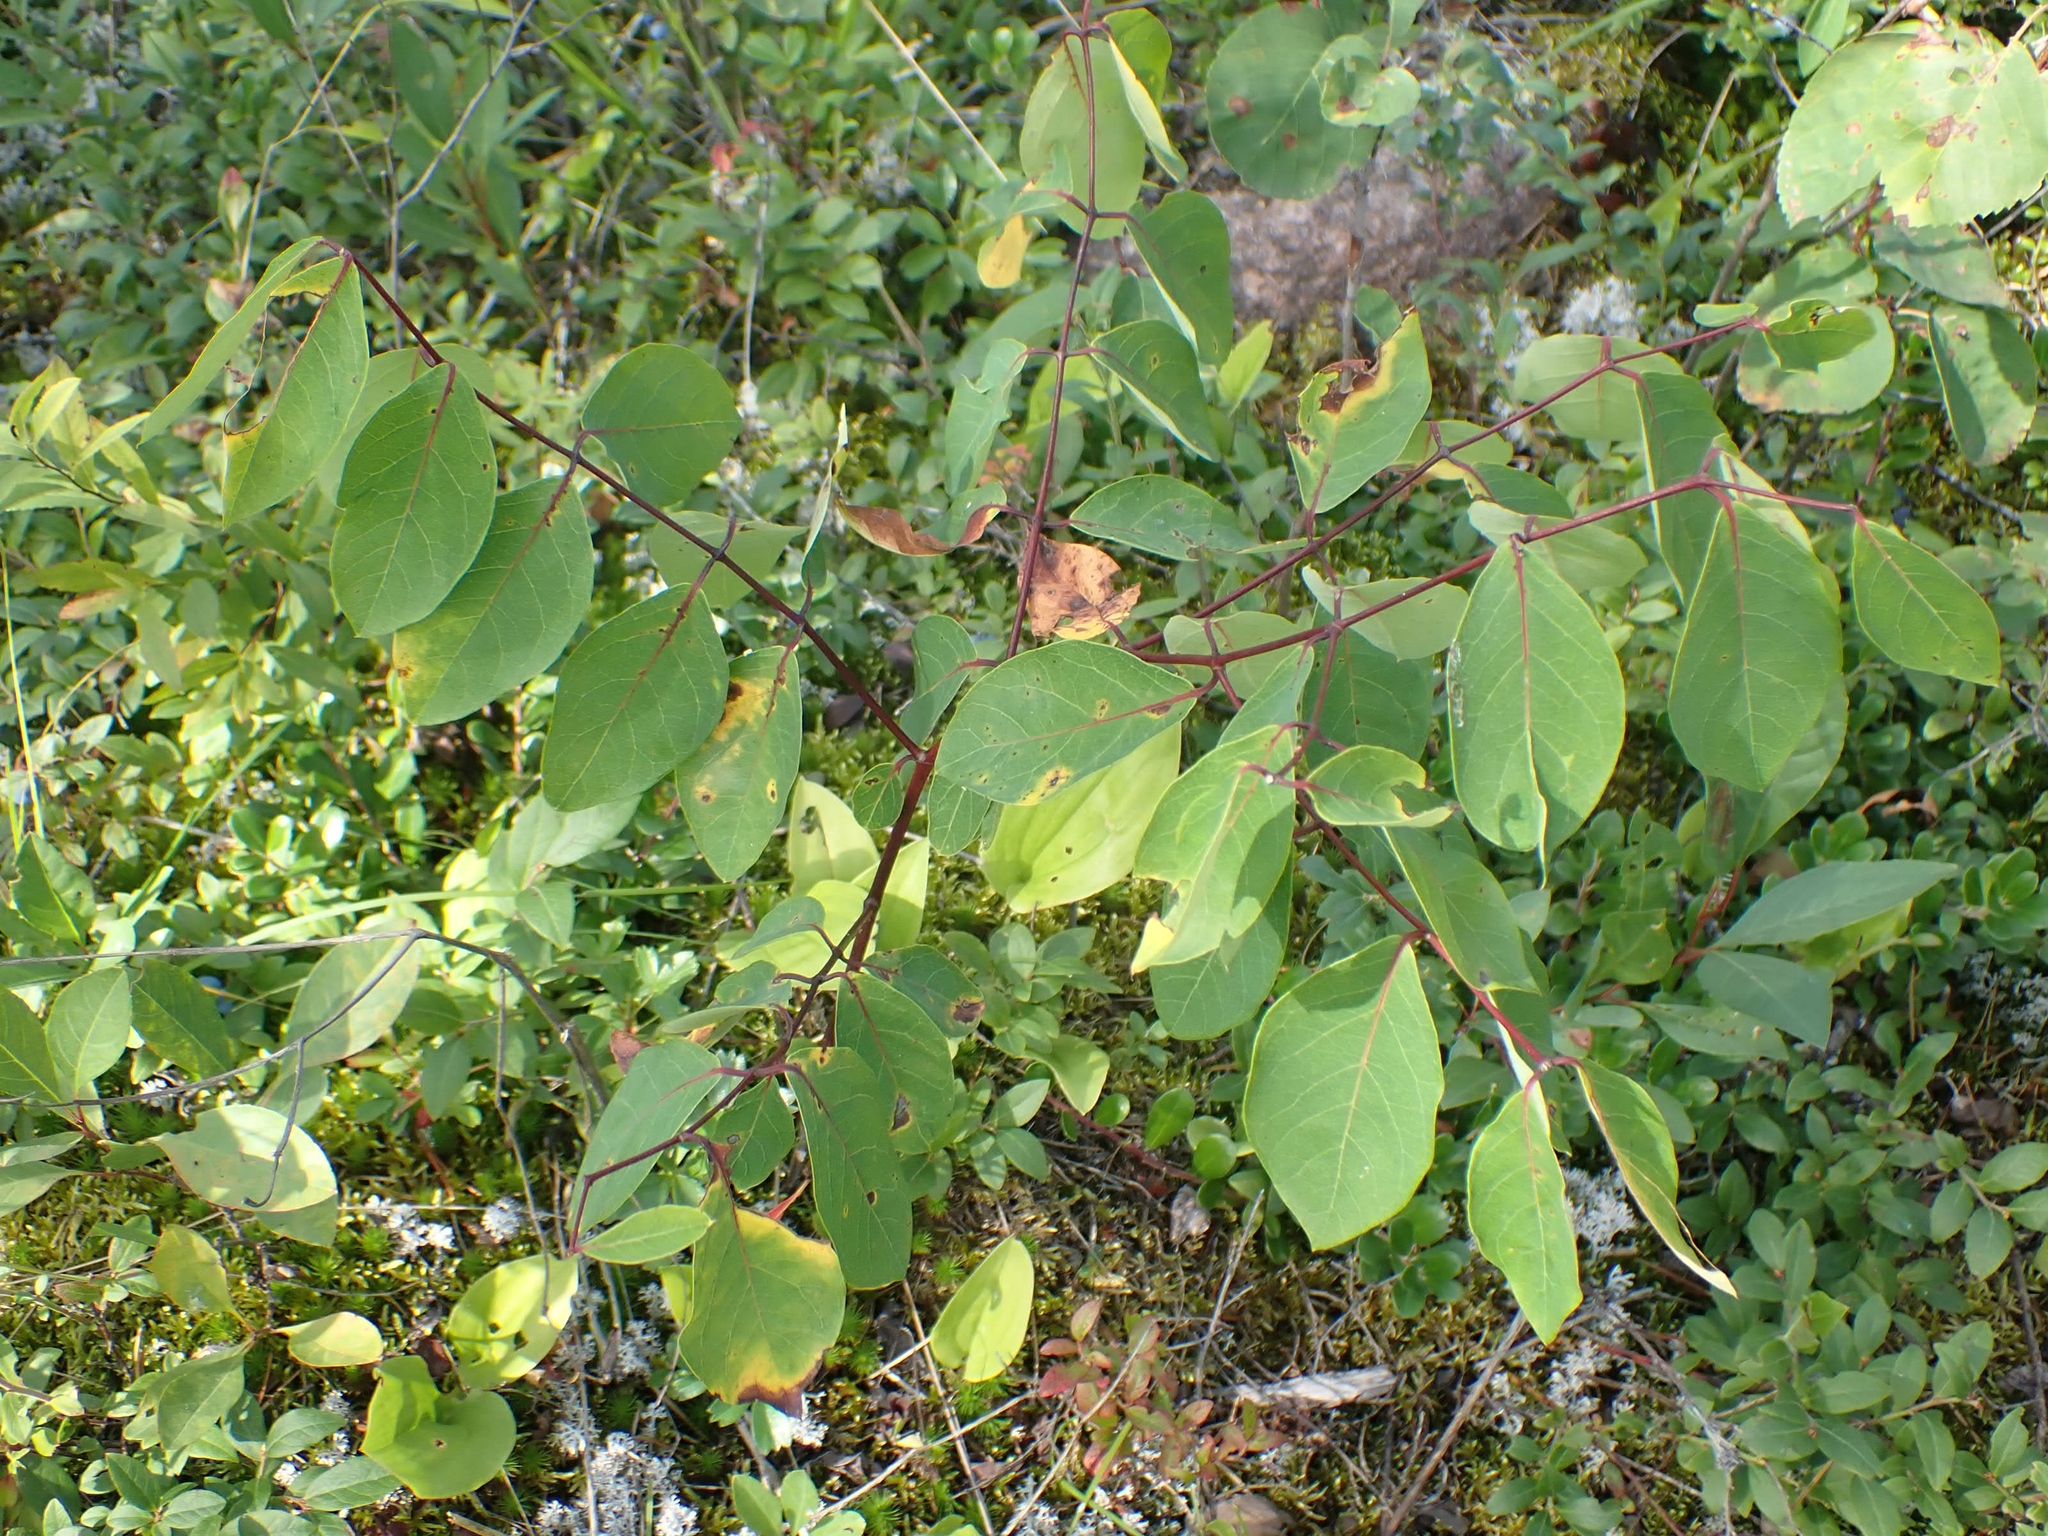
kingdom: Plantae
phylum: Tracheophyta
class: Magnoliopsida
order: Gentianales
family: Apocynaceae
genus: Apocynum
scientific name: Apocynum androsaemifolium
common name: Spreading dogbane
